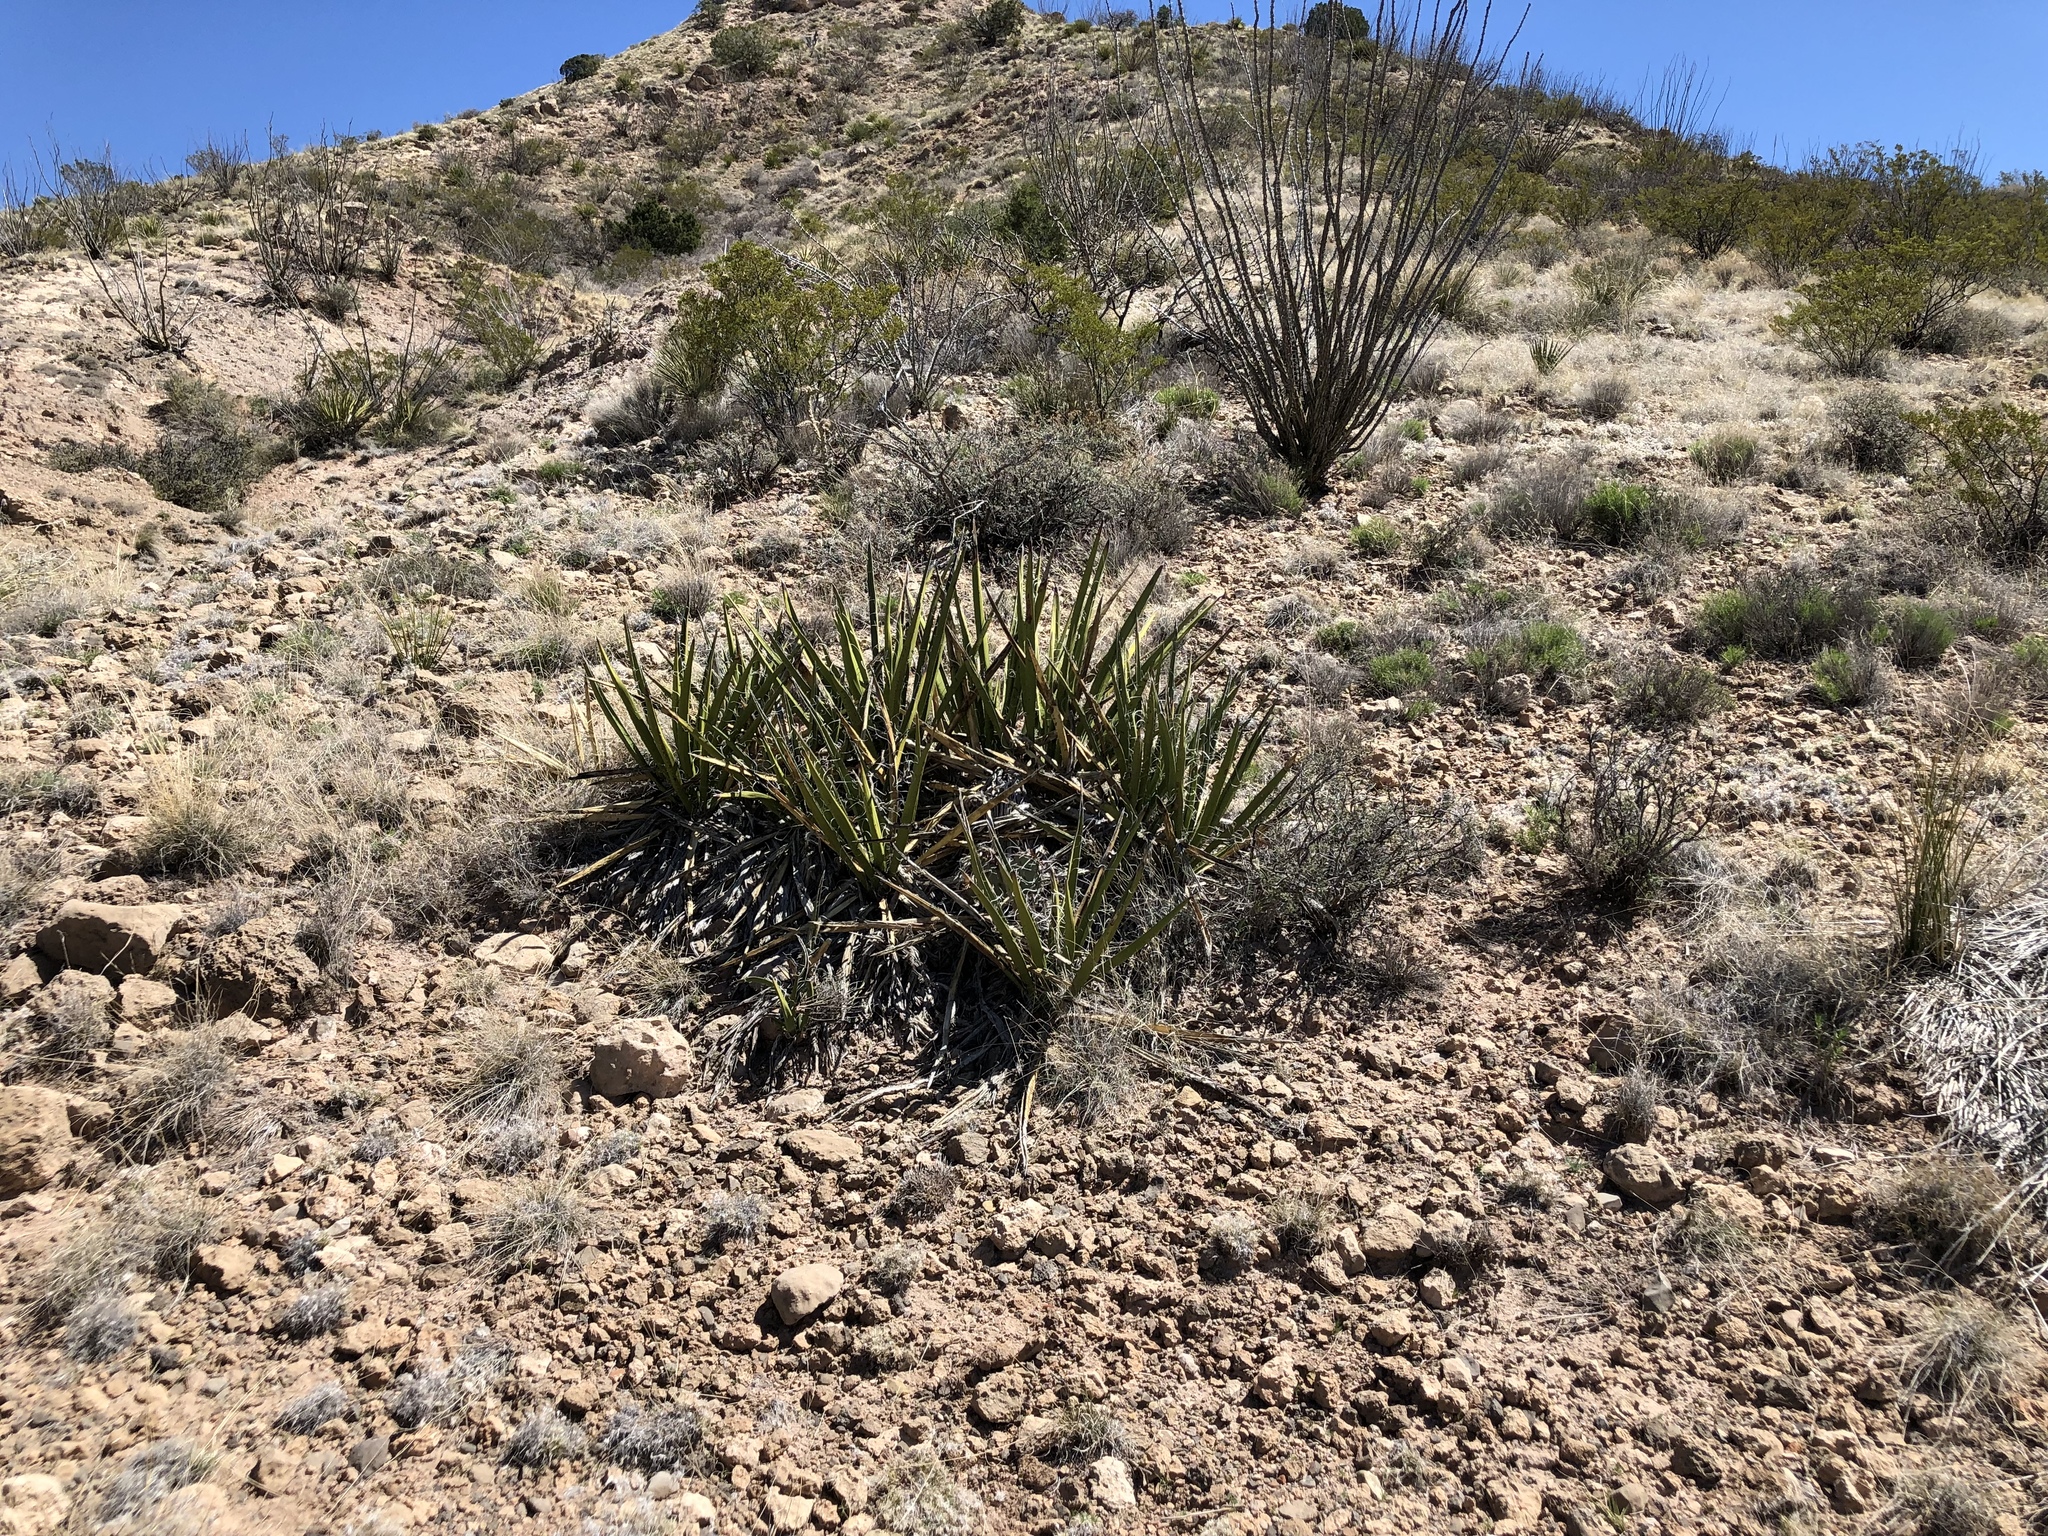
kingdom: Plantae
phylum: Tracheophyta
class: Liliopsida
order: Asparagales
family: Asparagaceae
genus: Yucca
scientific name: Yucca baccata
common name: Banana yucca
